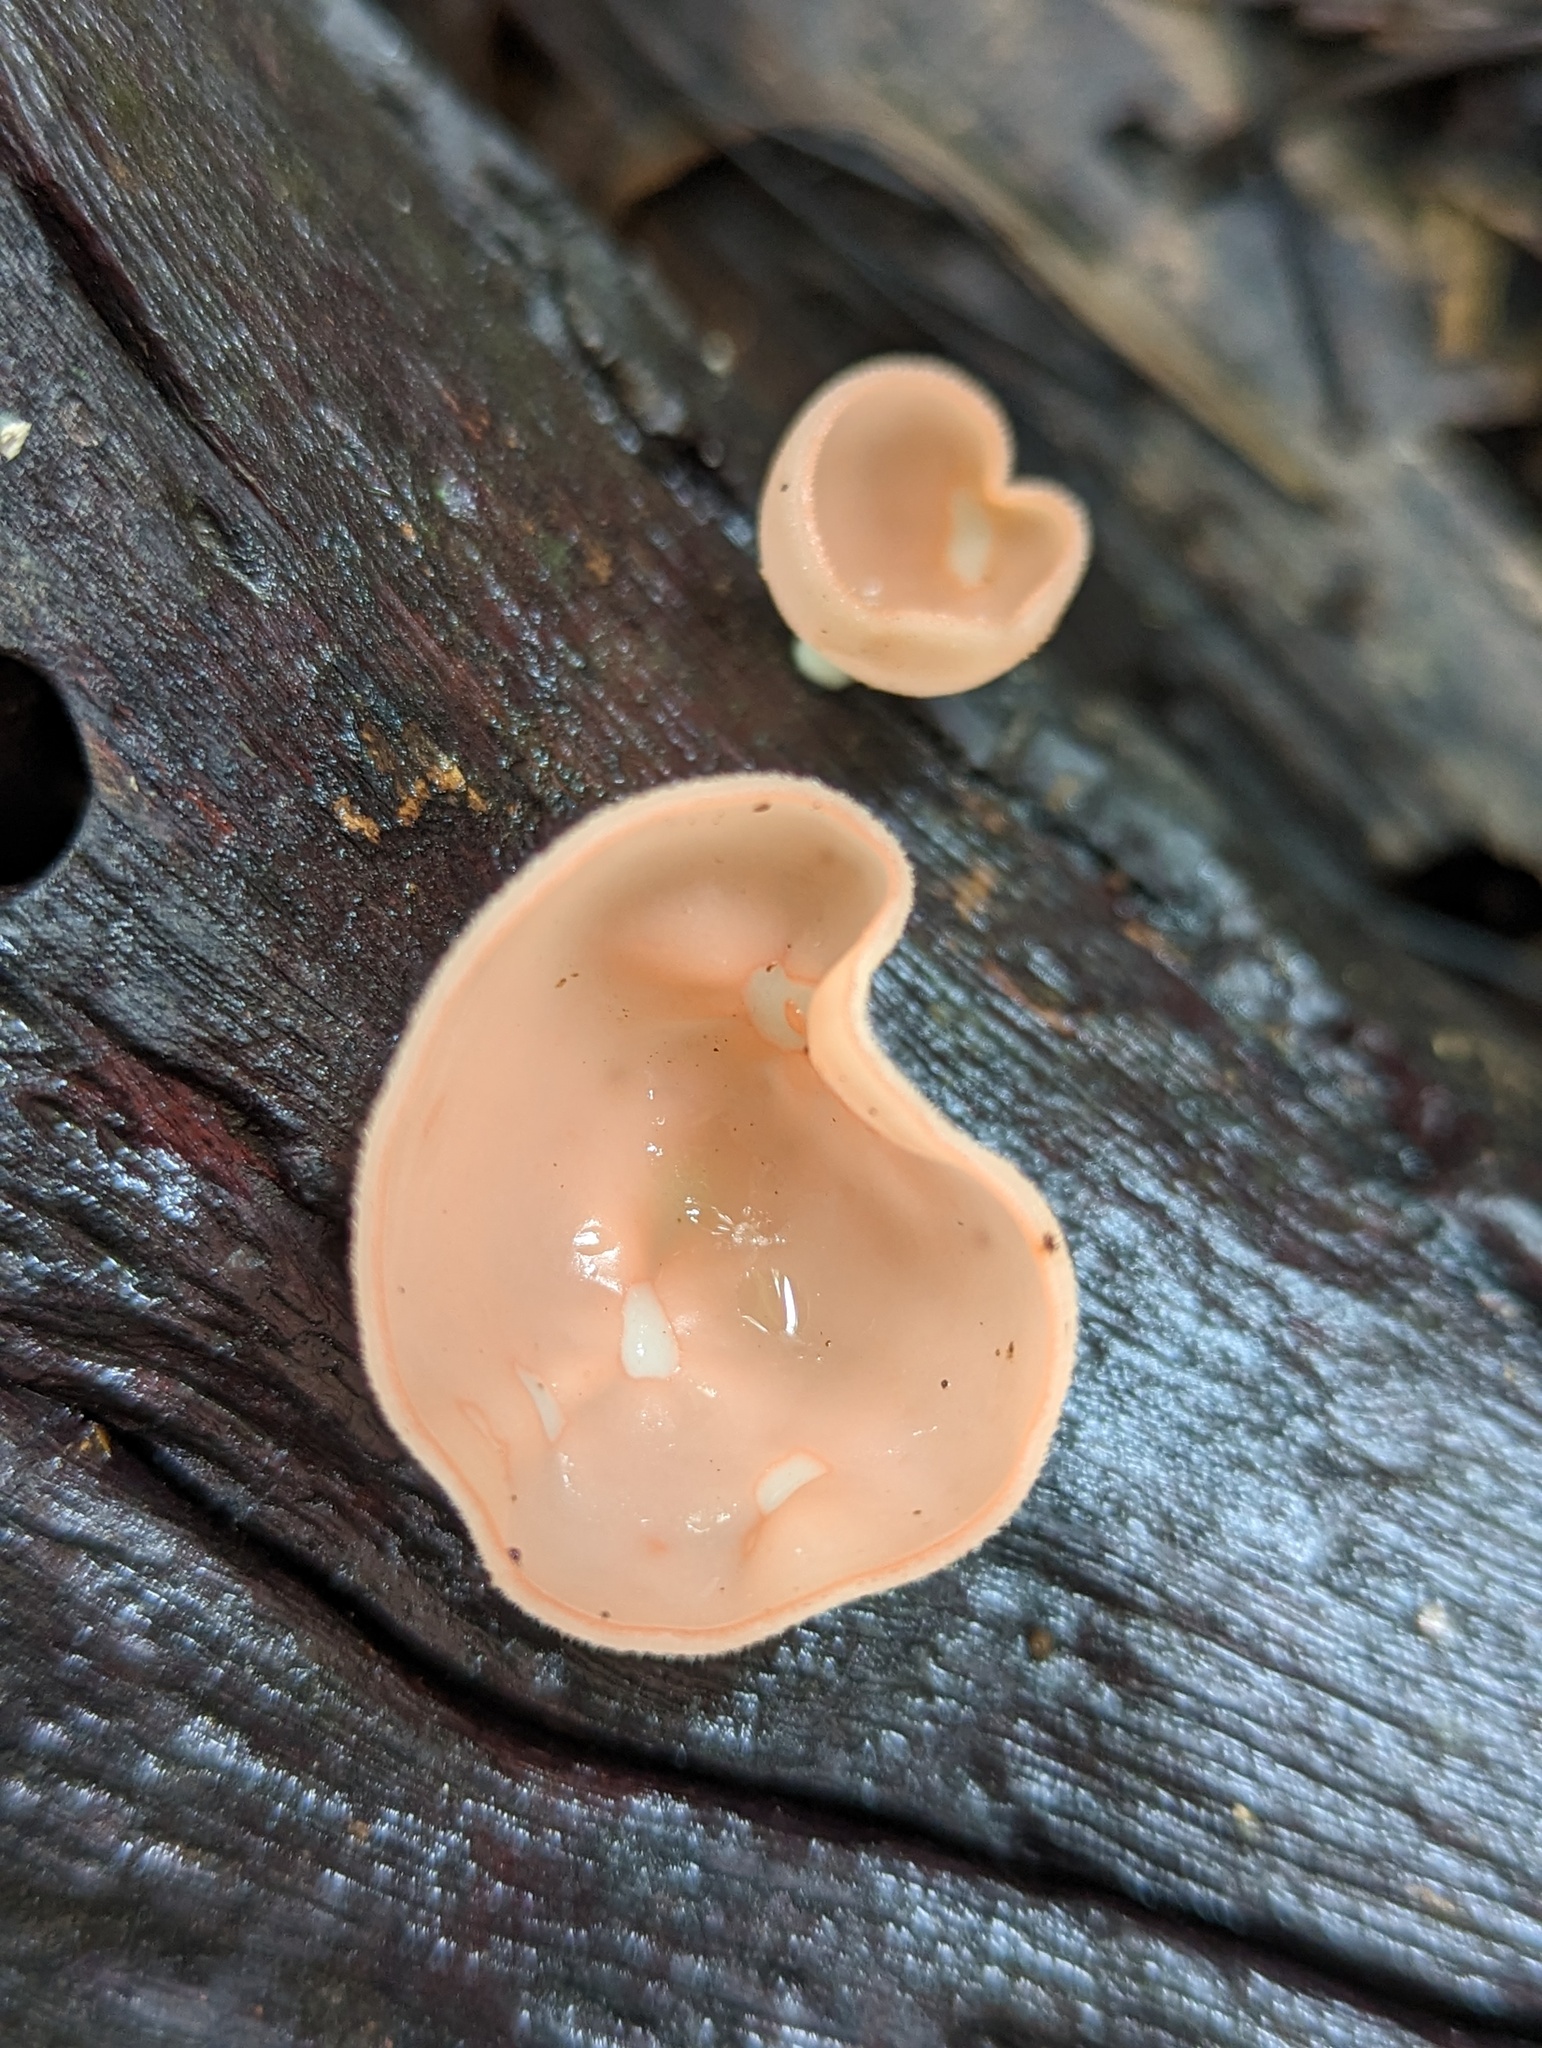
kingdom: Fungi
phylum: Ascomycota
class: Pezizomycetes
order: Pezizales
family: Sarcoscyphaceae
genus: Cookeina
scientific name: Cookeina speciosa
